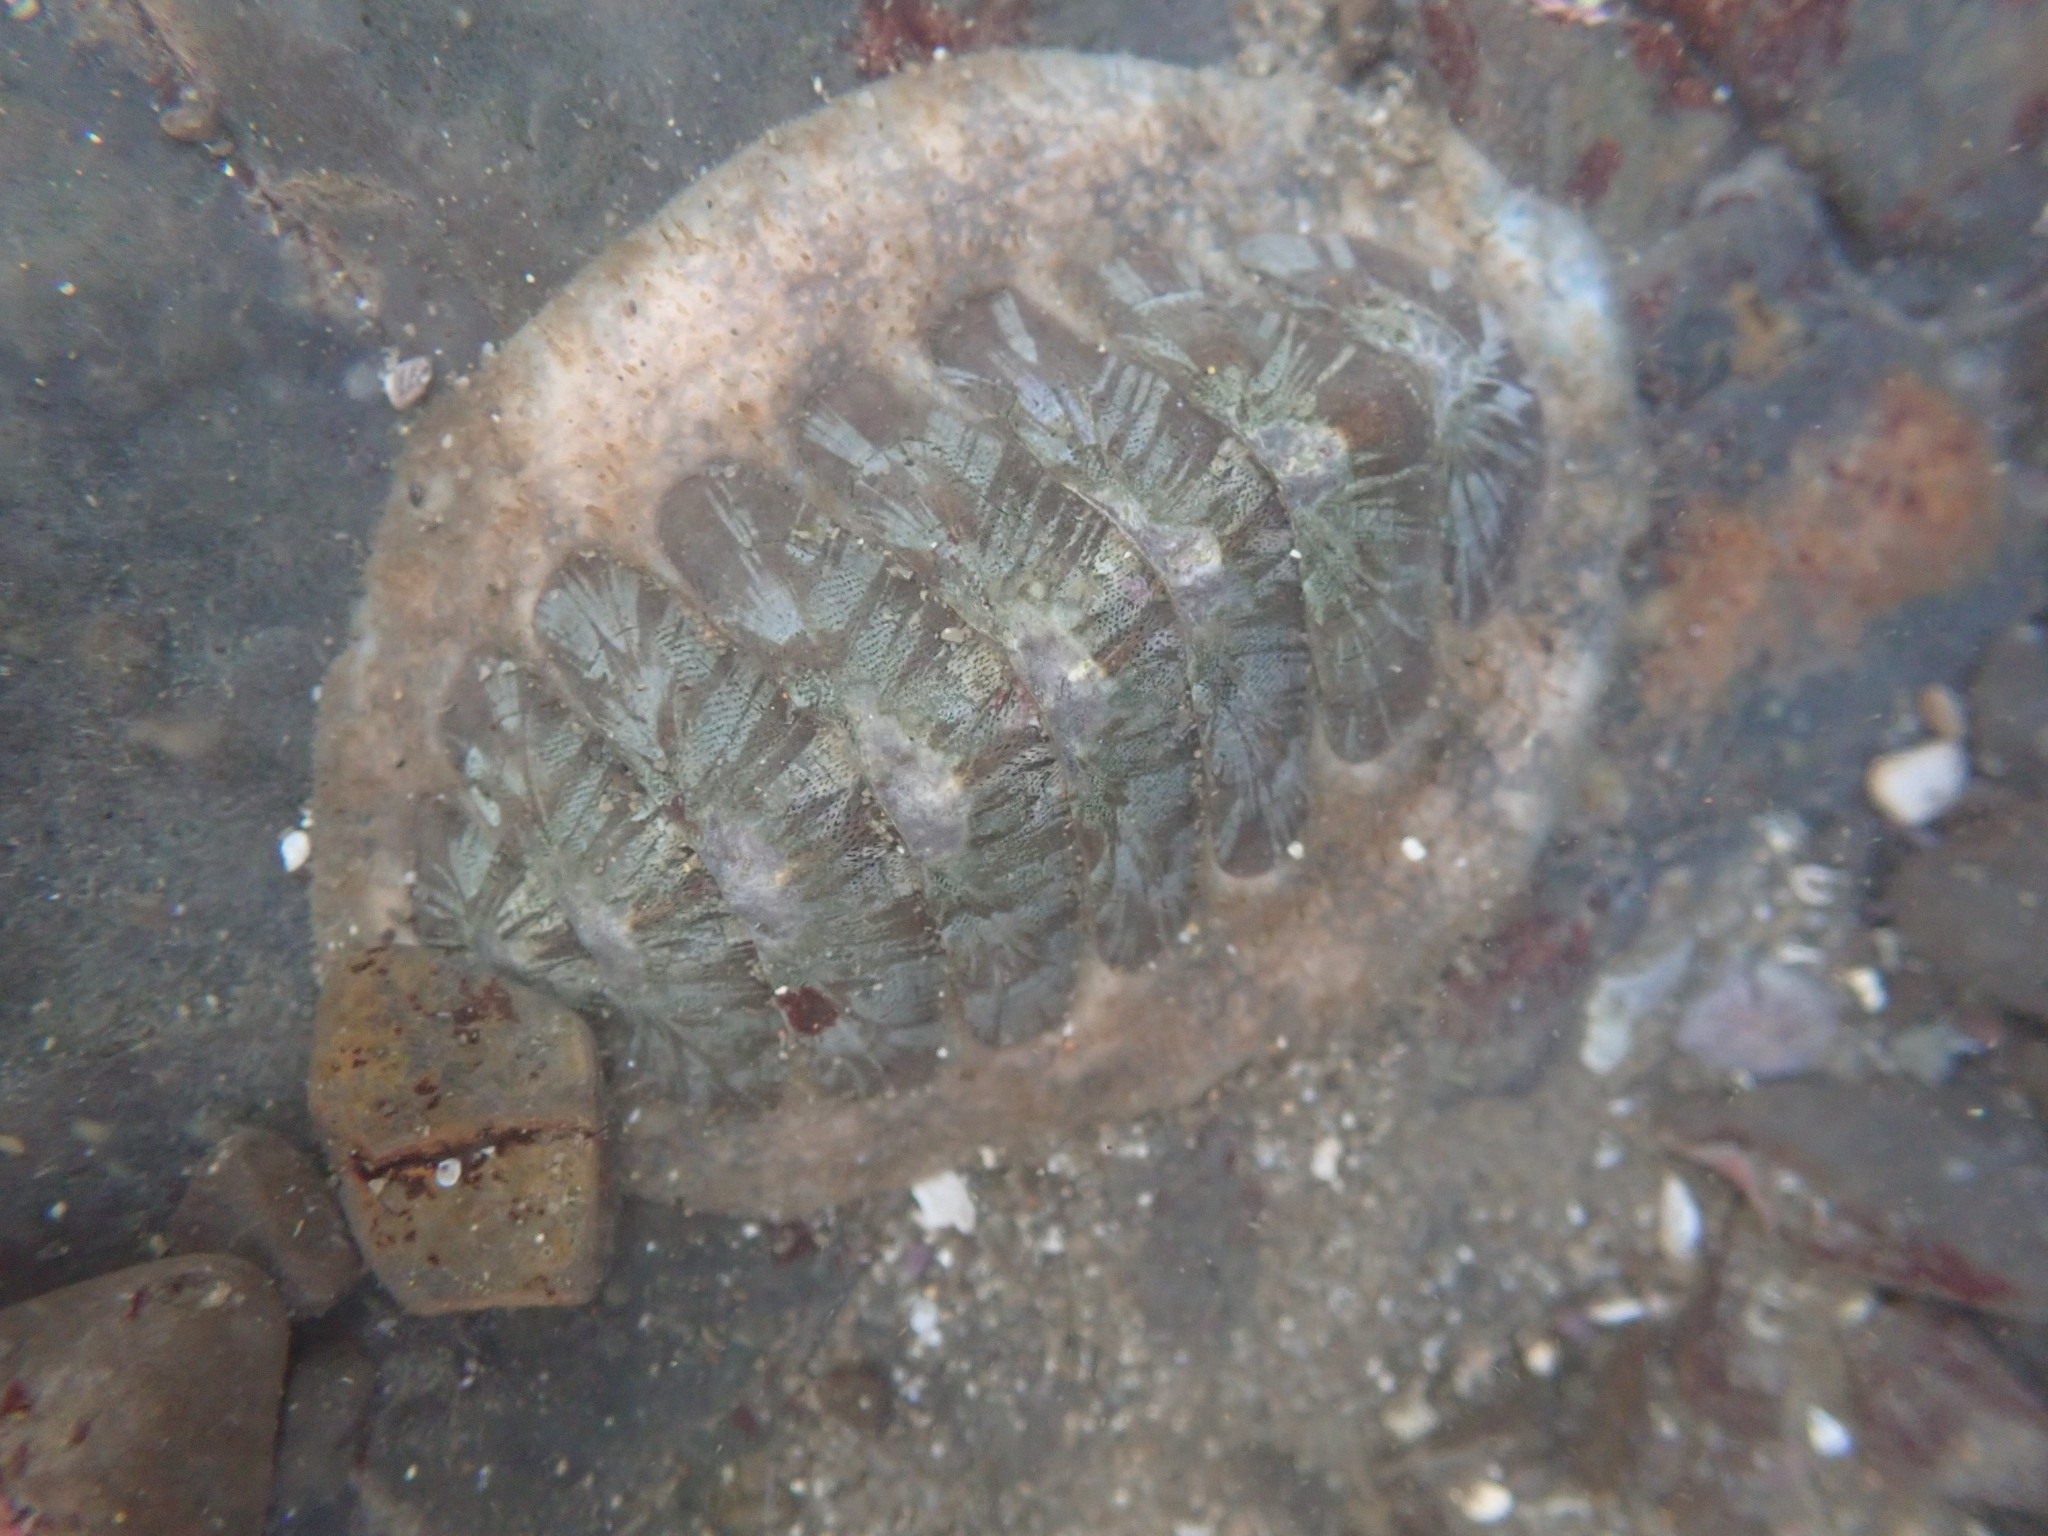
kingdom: Animalia
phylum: Mollusca
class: Polyplacophora
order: Chitonida
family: Mopaliidae
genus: Mopalia
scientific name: Mopalia lignosa
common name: Woody chiton
